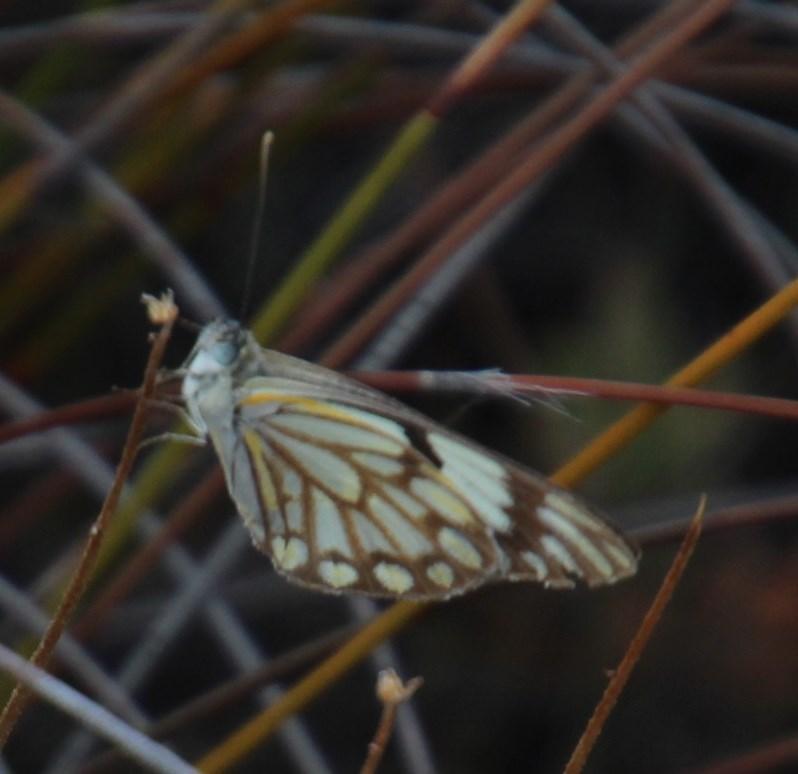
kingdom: Animalia
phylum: Arthropoda
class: Insecta
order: Lepidoptera
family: Pieridae
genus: Belenois
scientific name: Belenois aurota
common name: Brown-veined white
